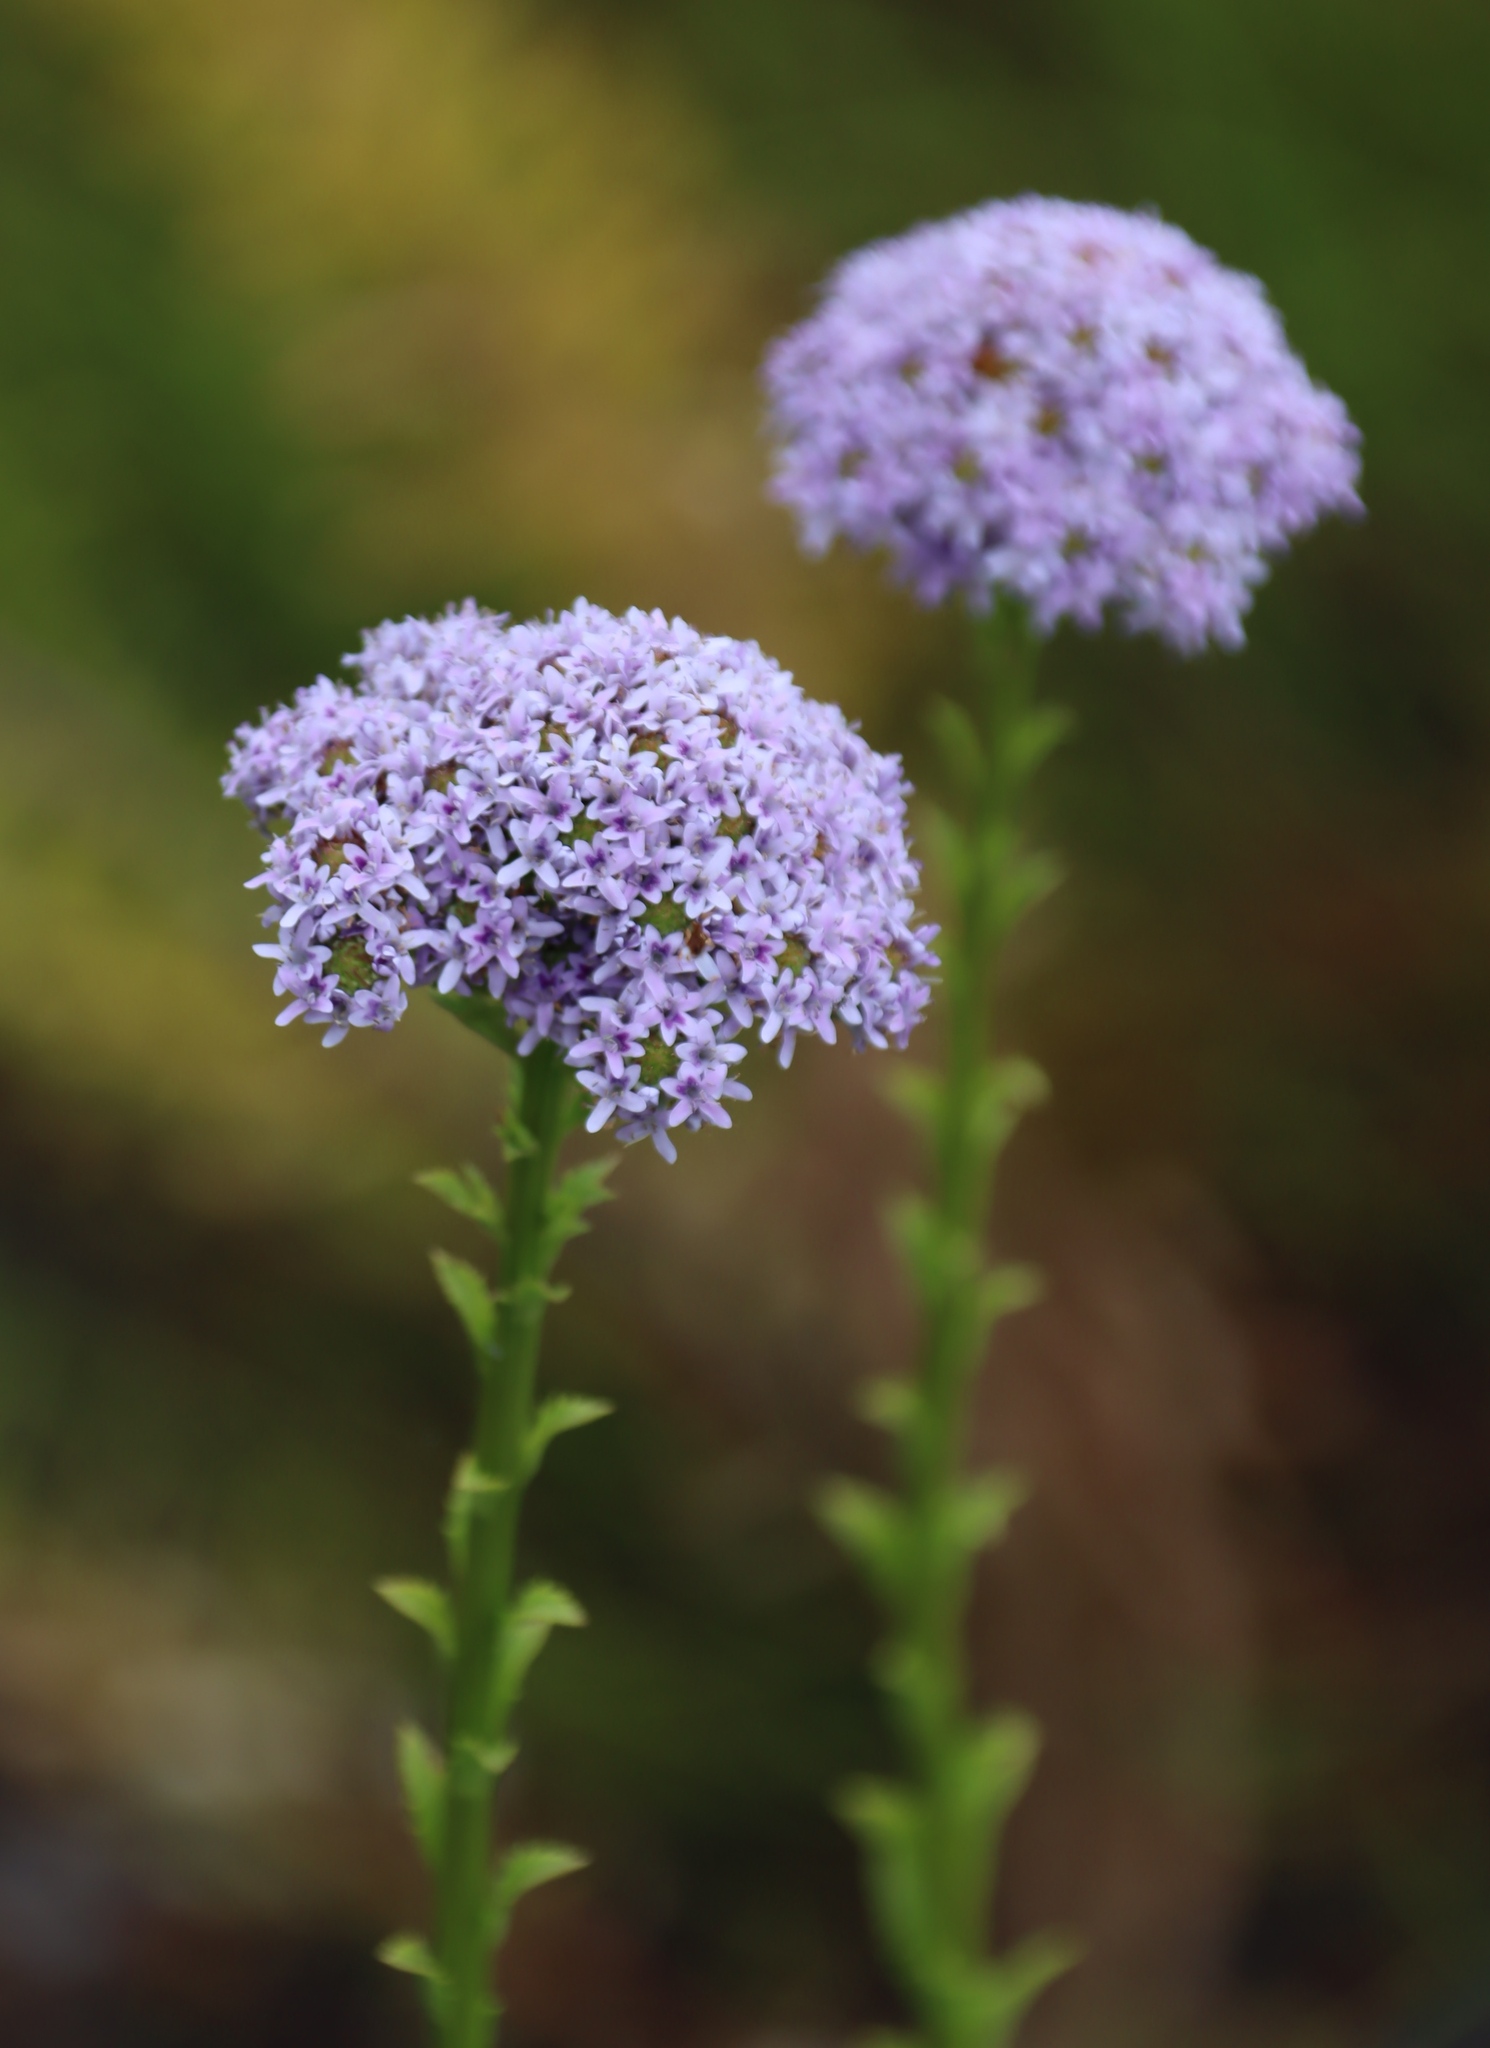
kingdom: Plantae
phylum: Tracheophyta
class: Magnoliopsida
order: Lamiales
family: Scrophulariaceae
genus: Pseudoselago
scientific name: Pseudoselago langebergensis
